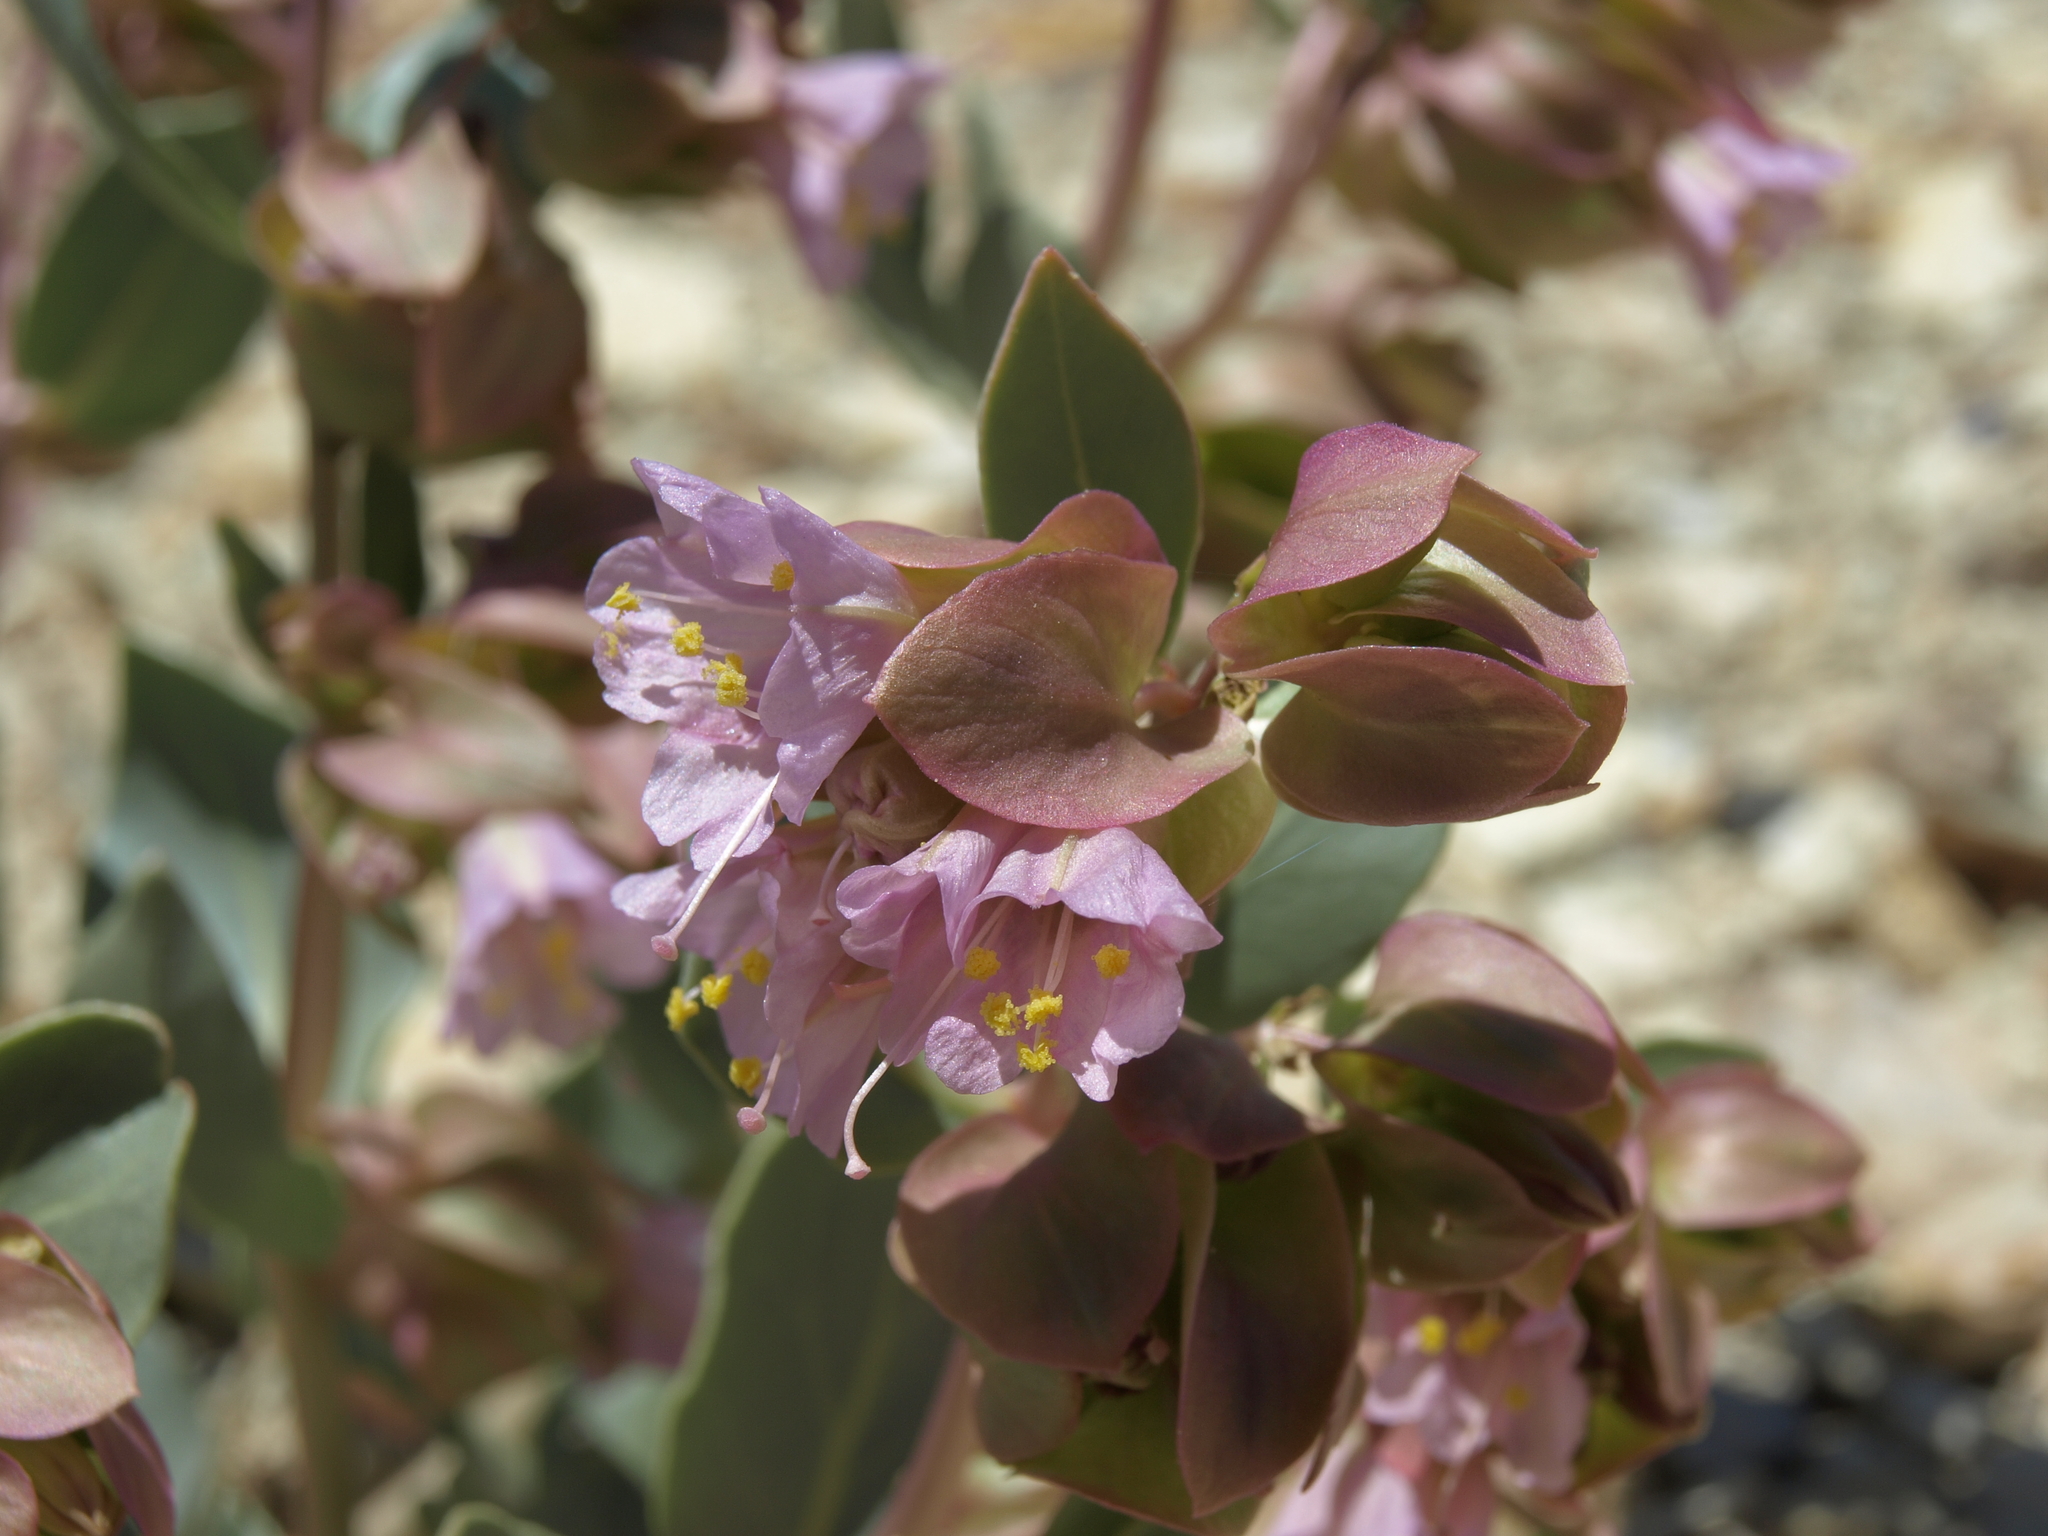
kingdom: Plantae
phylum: Tracheophyta
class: Magnoliopsida
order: Caryophyllales
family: Nyctaginaceae
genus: Mirabilis
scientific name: Mirabilis alipes
